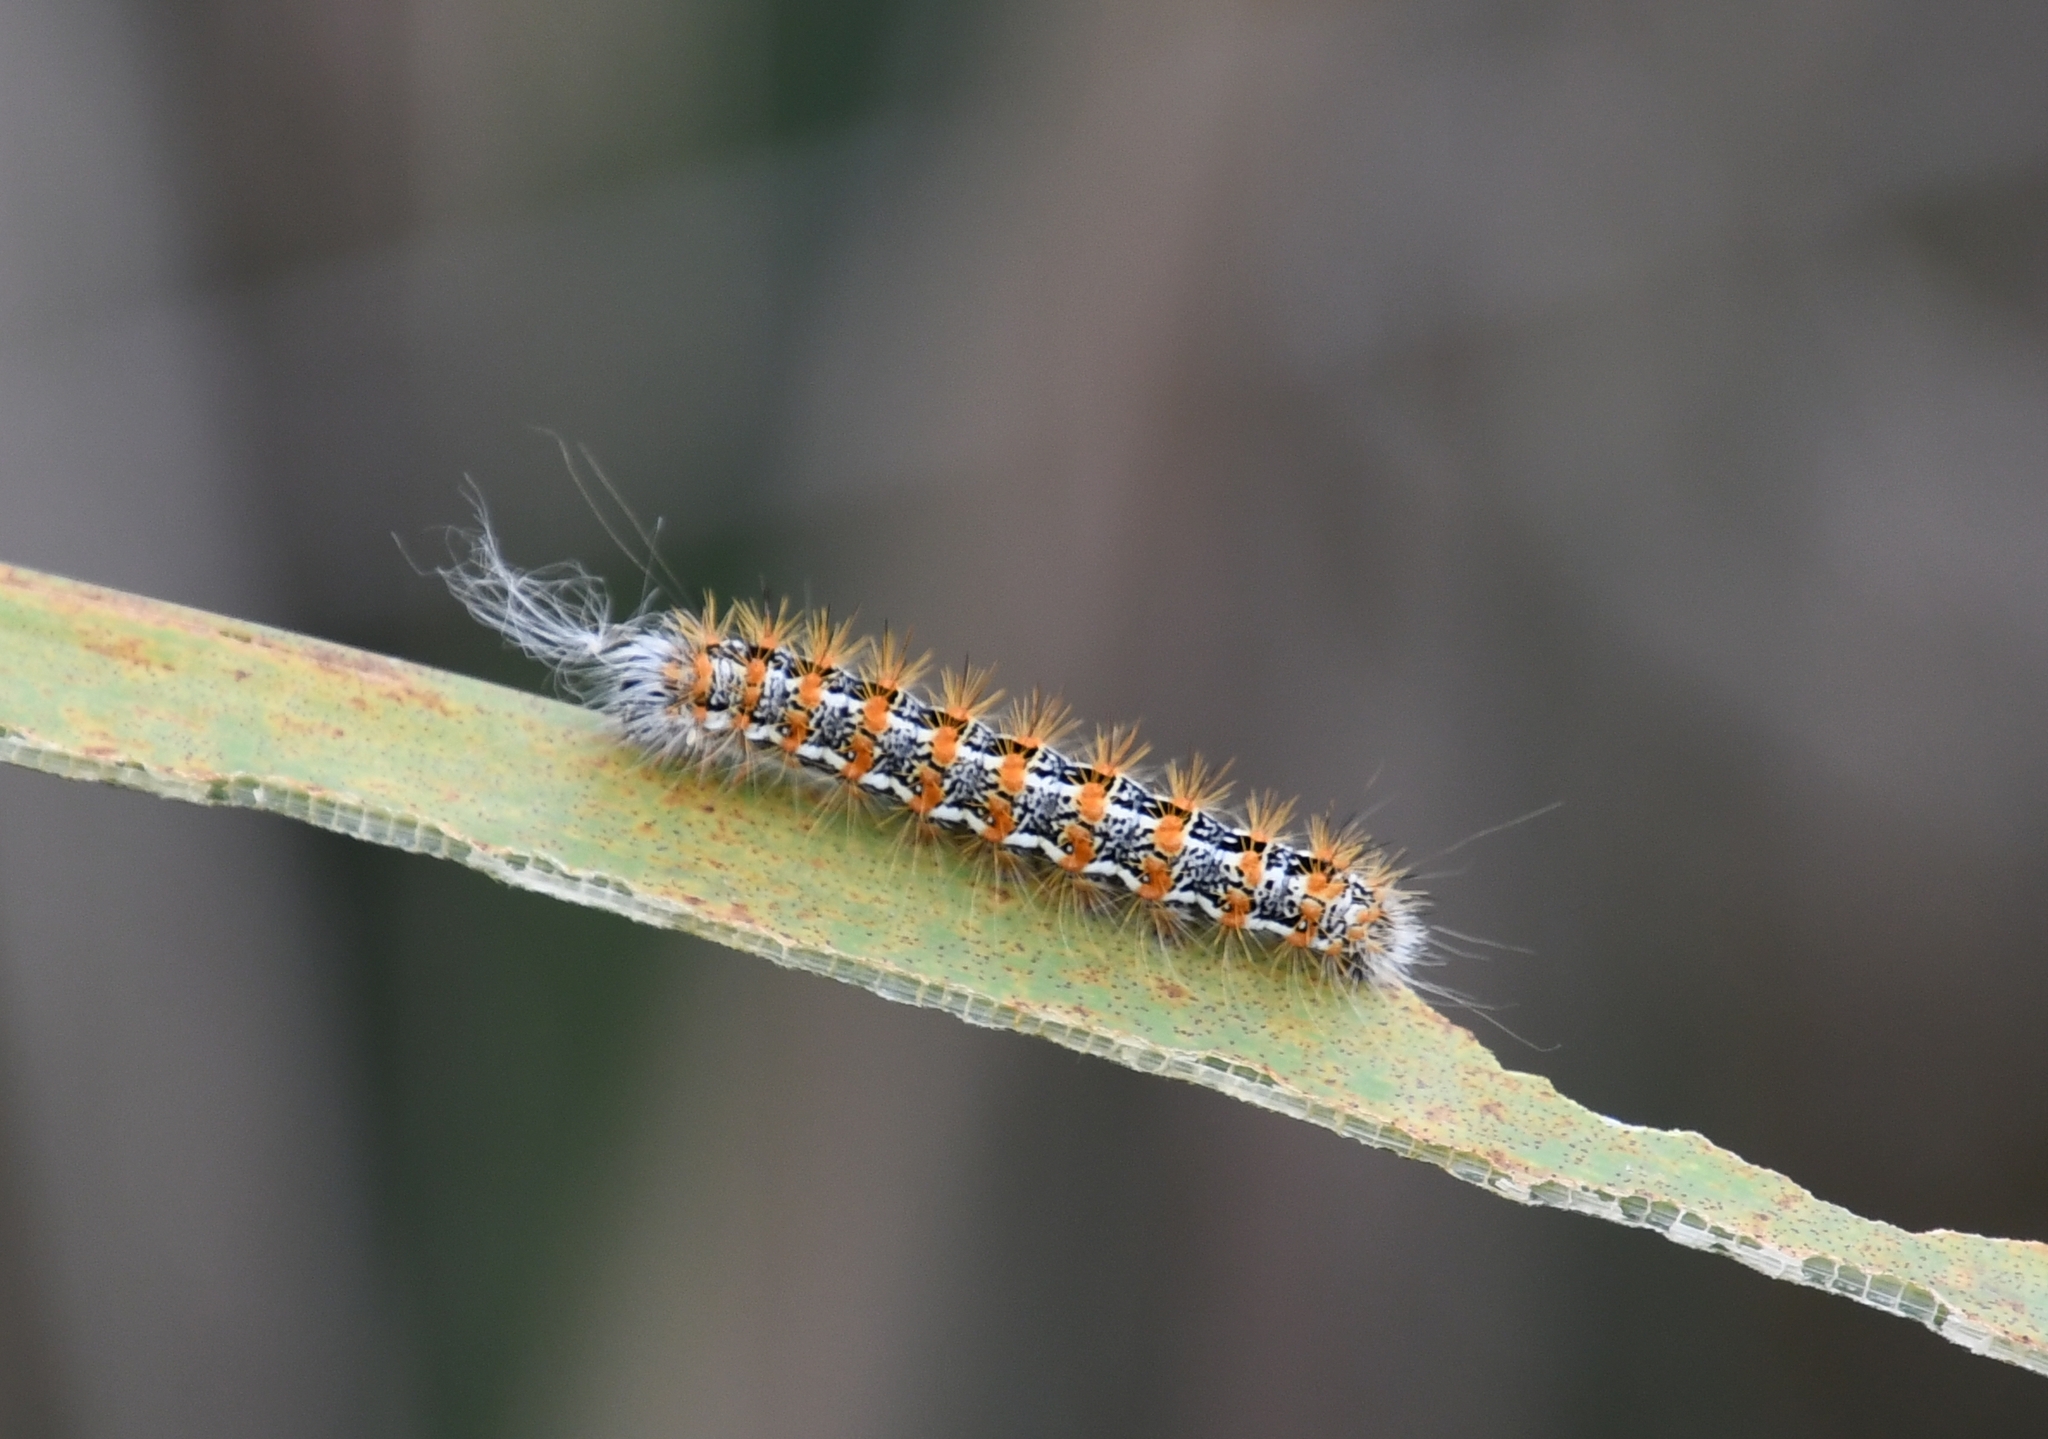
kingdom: Animalia
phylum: Arthropoda
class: Insecta
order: Lepidoptera
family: Noctuidae
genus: Acronicta
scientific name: Acronicta insularis
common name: Henry's marsh moth
